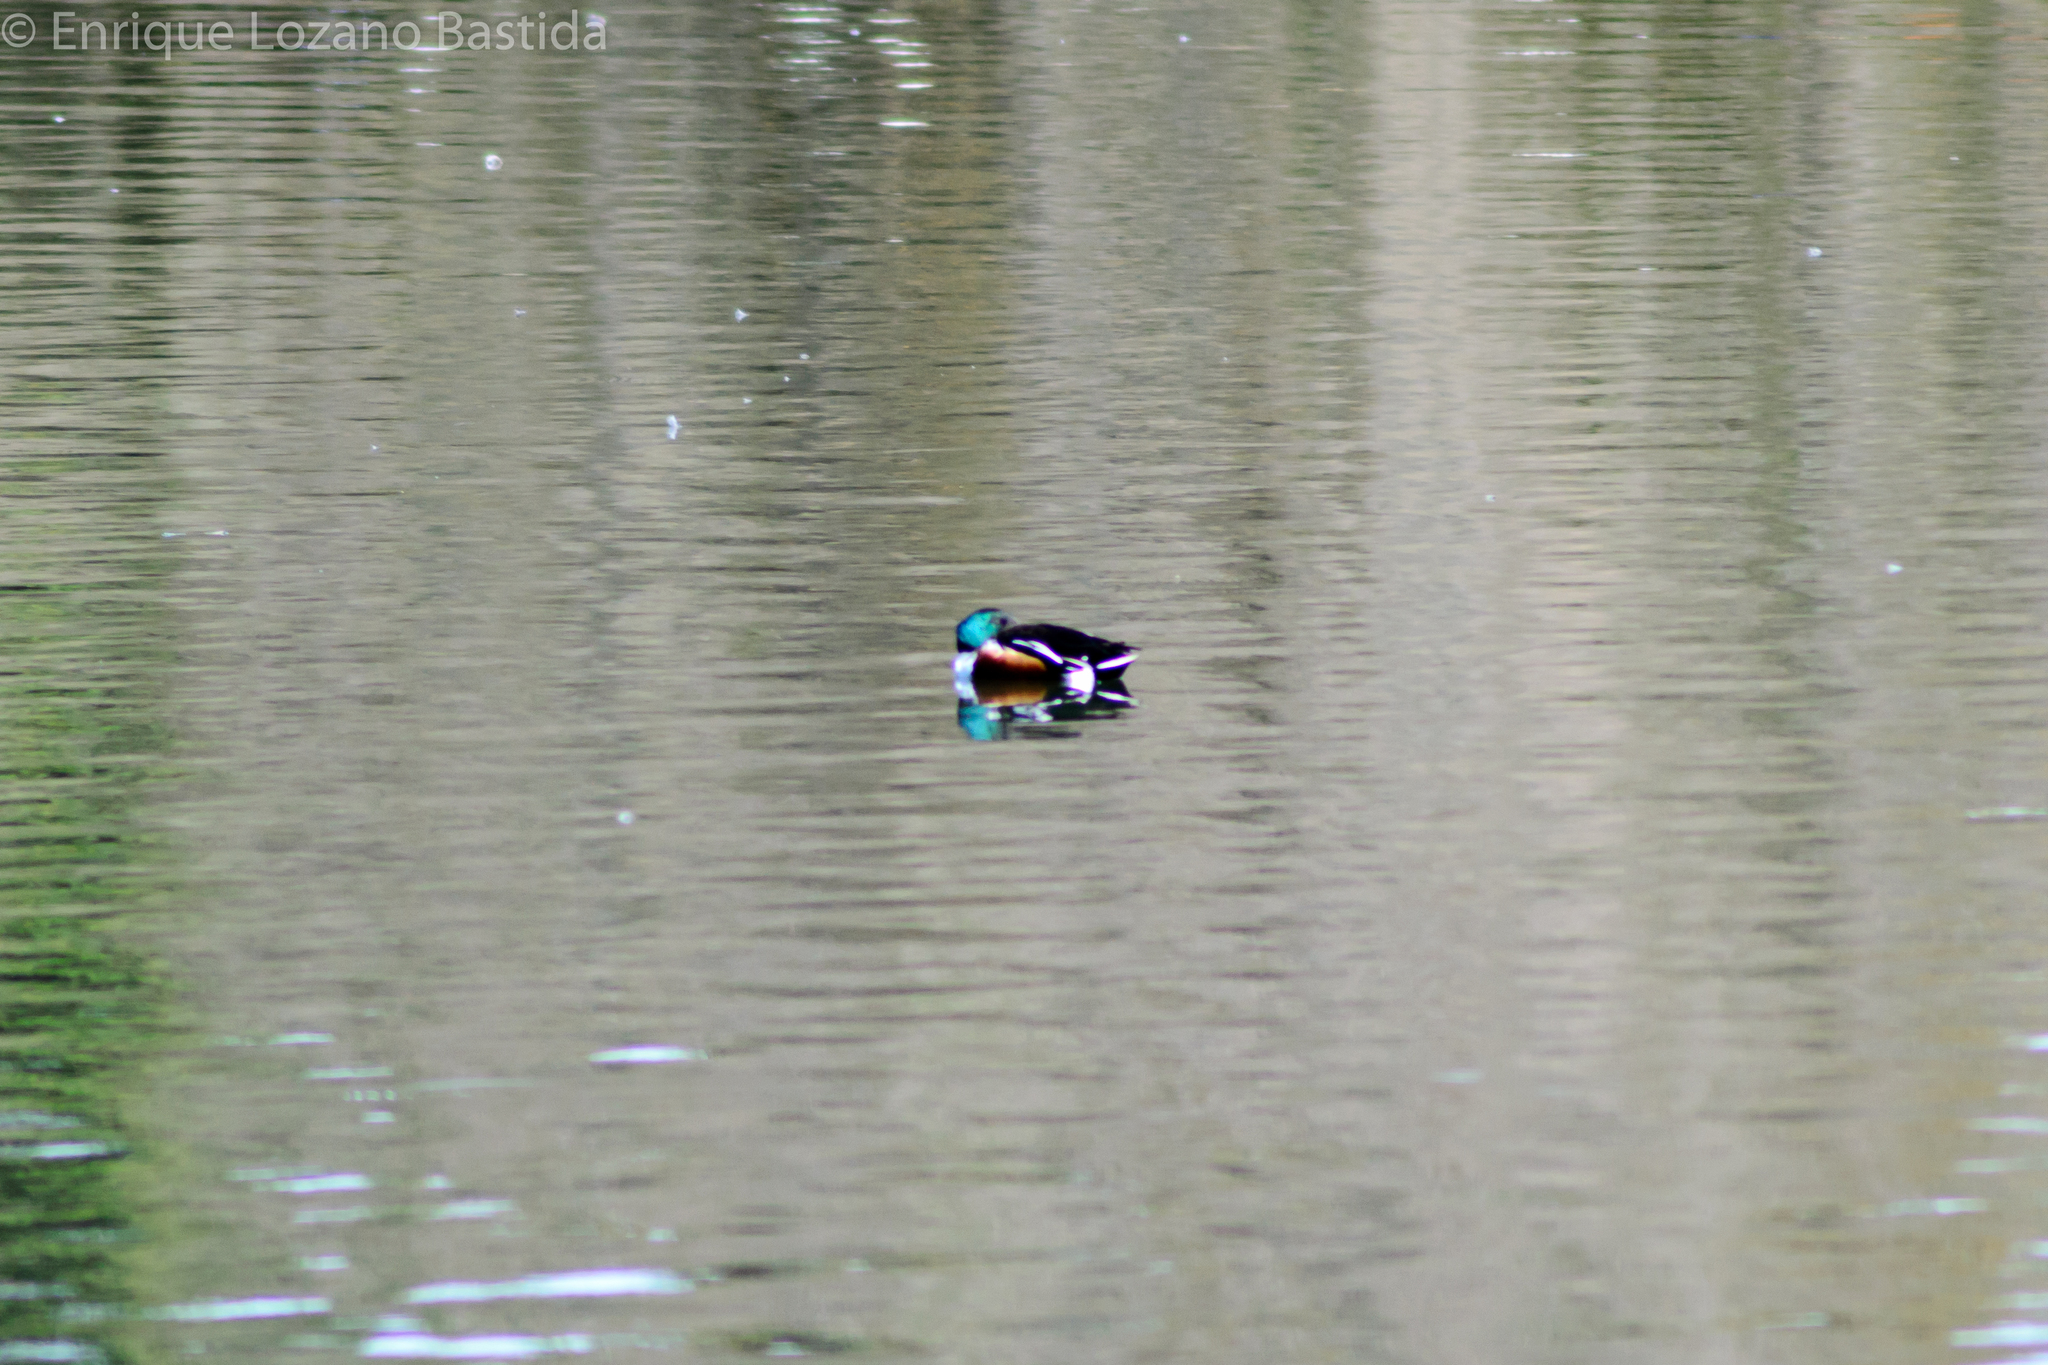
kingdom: Animalia
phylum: Chordata
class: Aves
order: Anseriformes
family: Anatidae
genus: Spatula
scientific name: Spatula clypeata
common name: Northern shoveler
